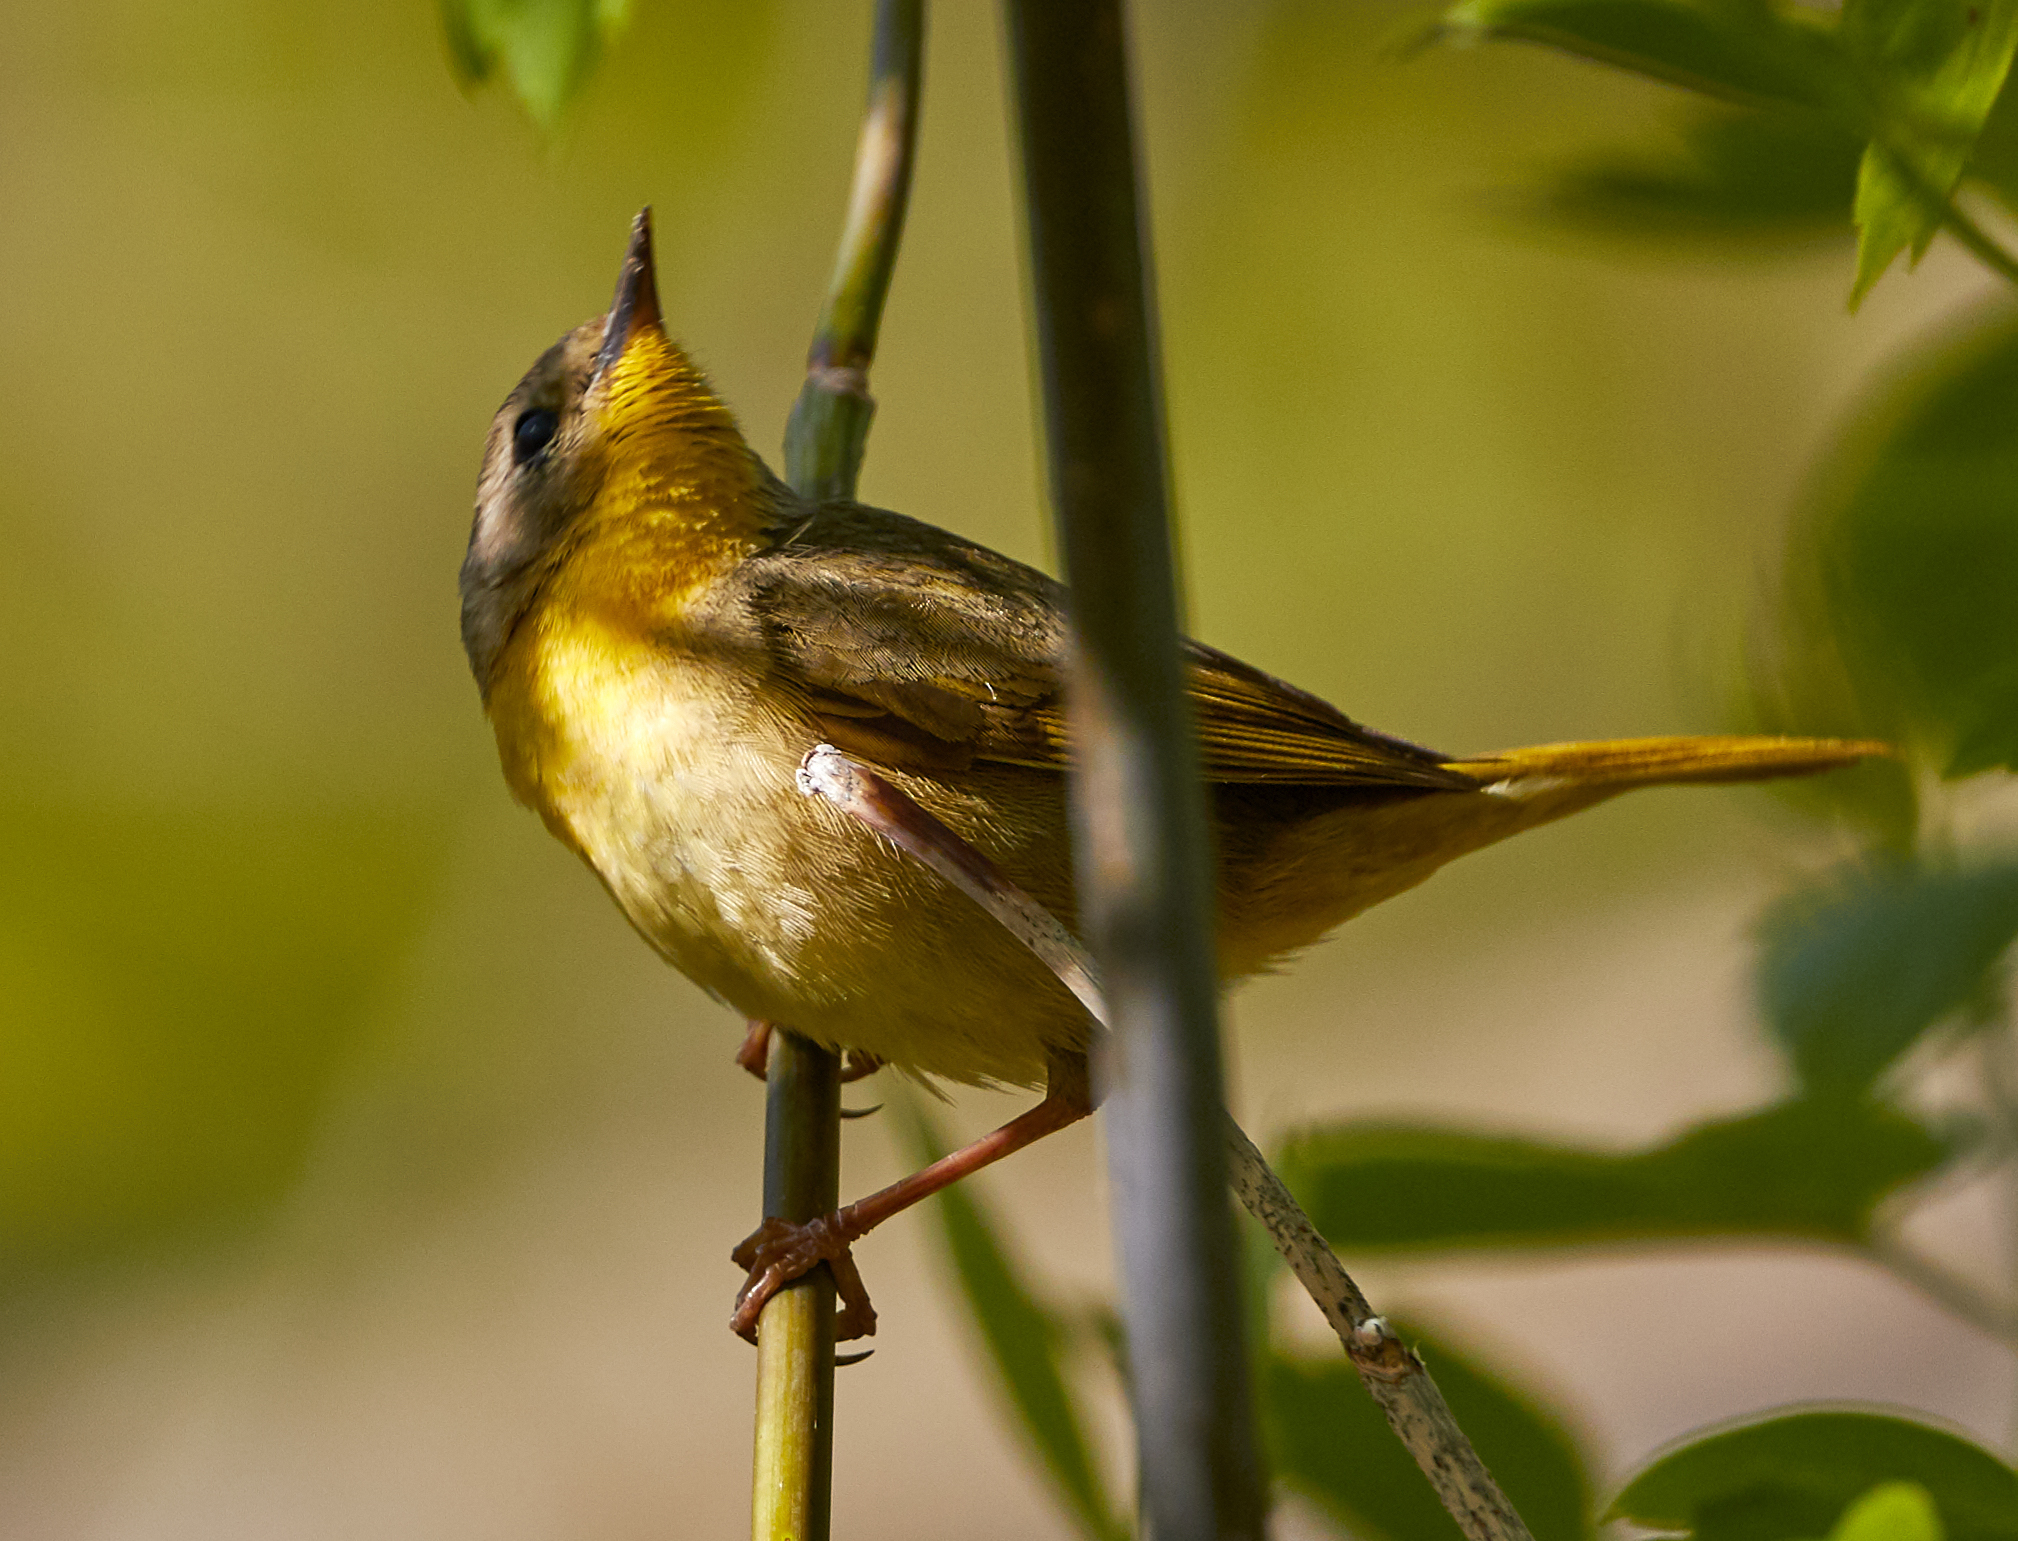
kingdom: Animalia
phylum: Chordata
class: Aves
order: Passeriformes
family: Parulidae
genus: Geothlypis
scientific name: Geothlypis trichas
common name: Common yellowthroat
